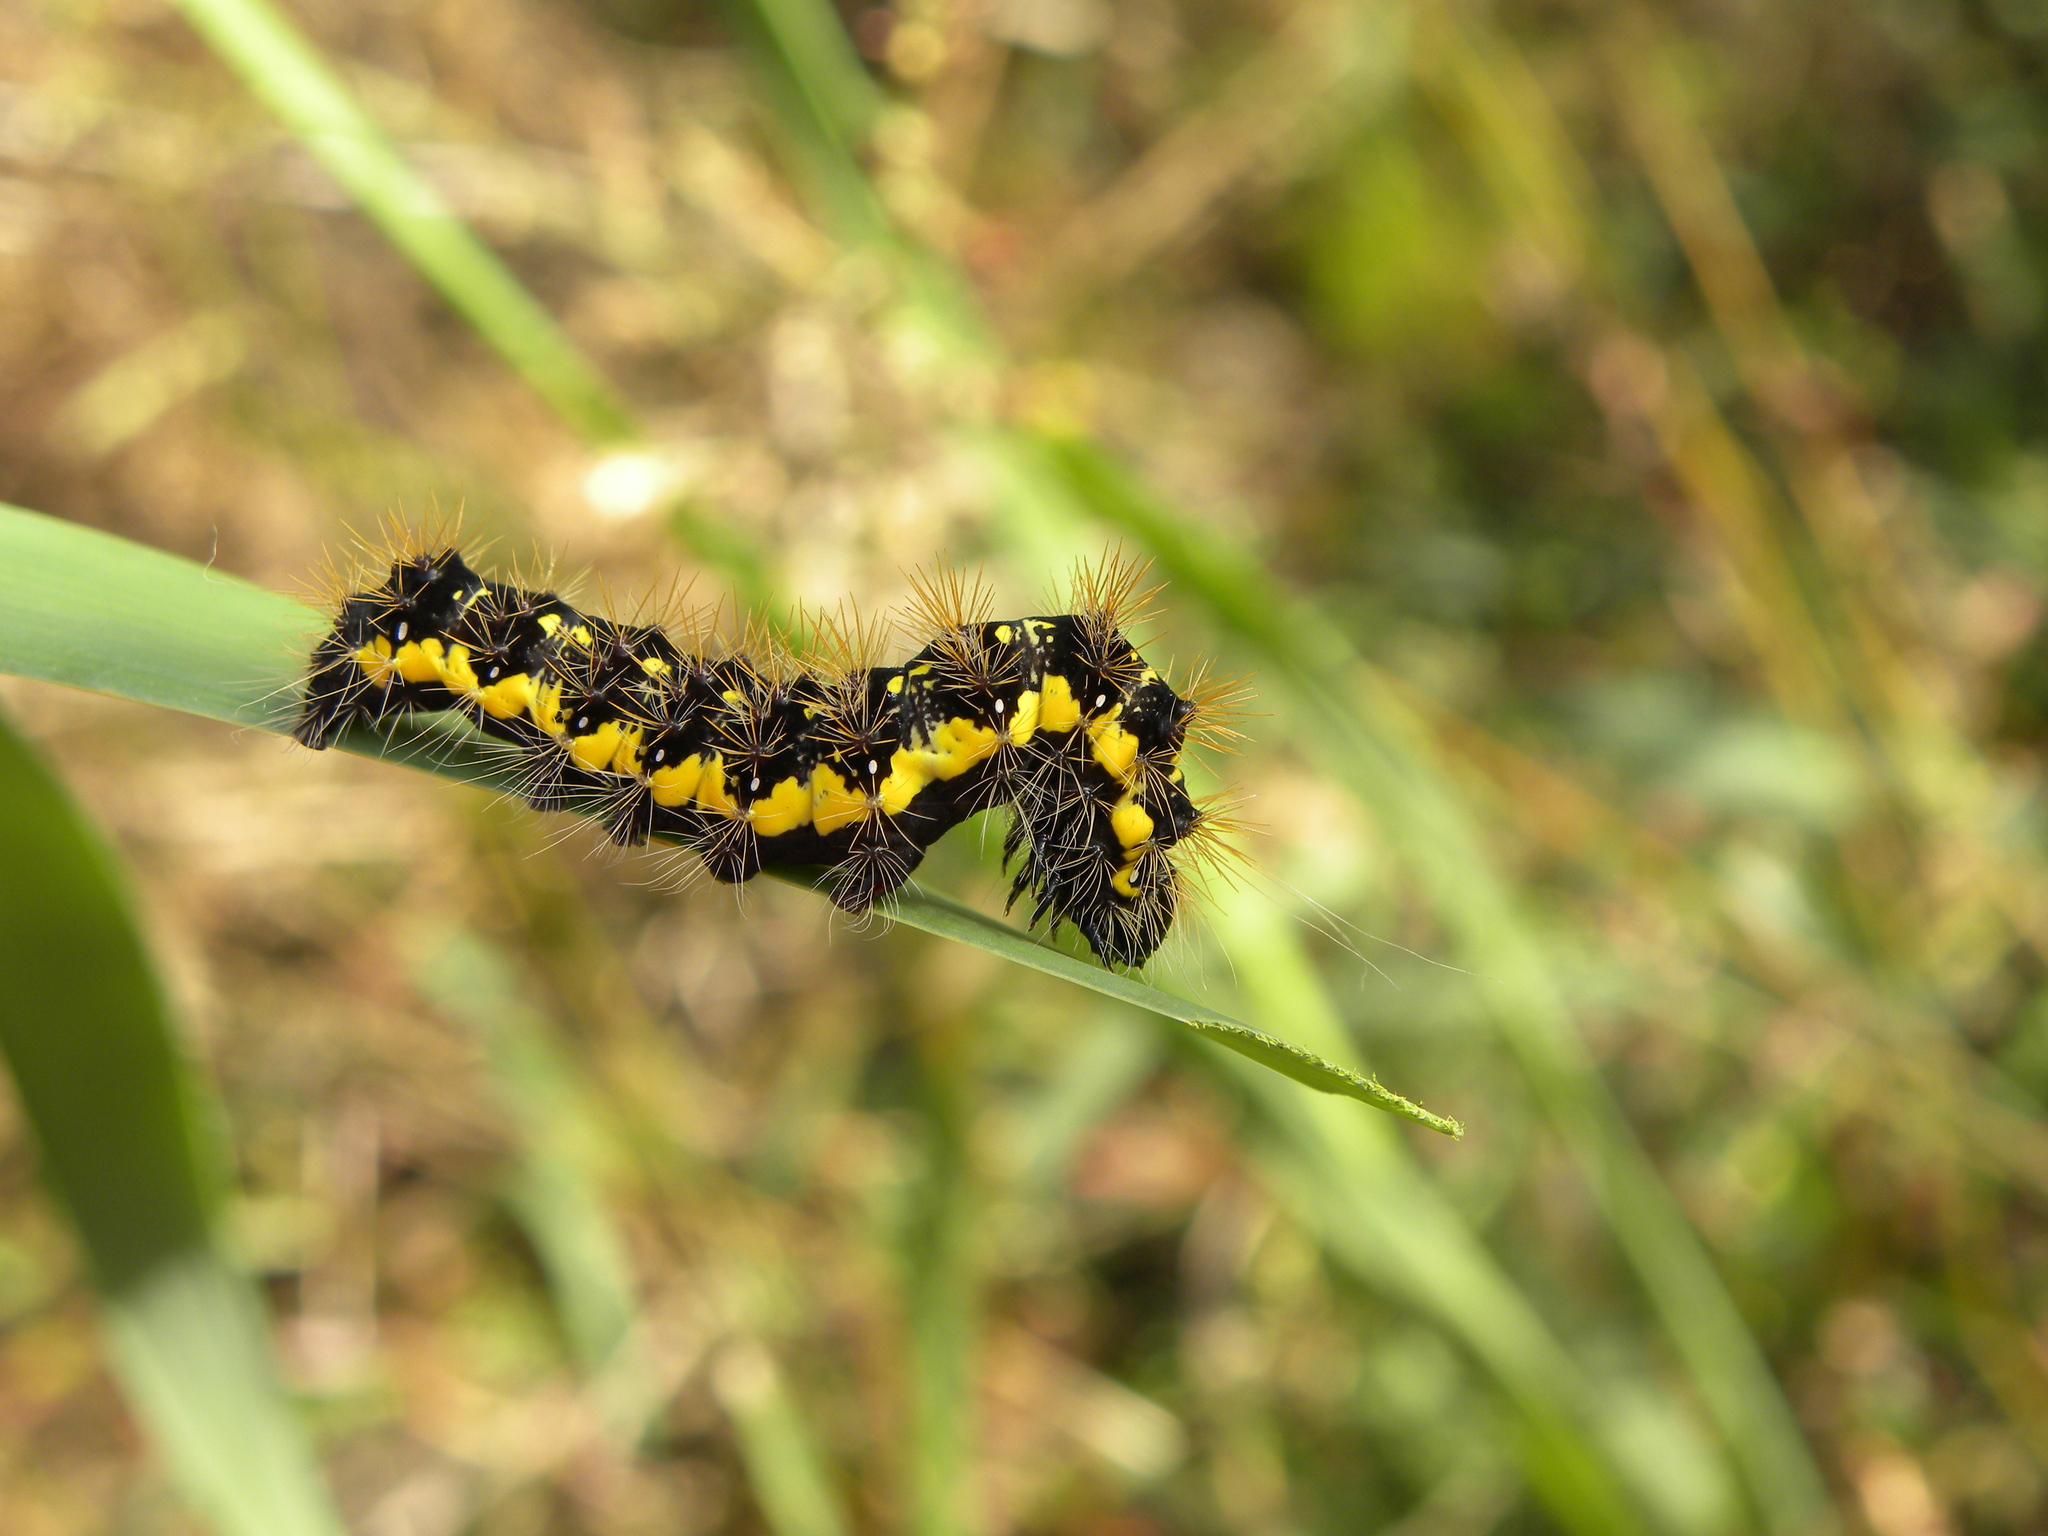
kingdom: Animalia
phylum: Arthropoda
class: Insecta
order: Lepidoptera
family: Noctuidae
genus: Acronicta
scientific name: Acronicta oblinita
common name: Smeared dagger
